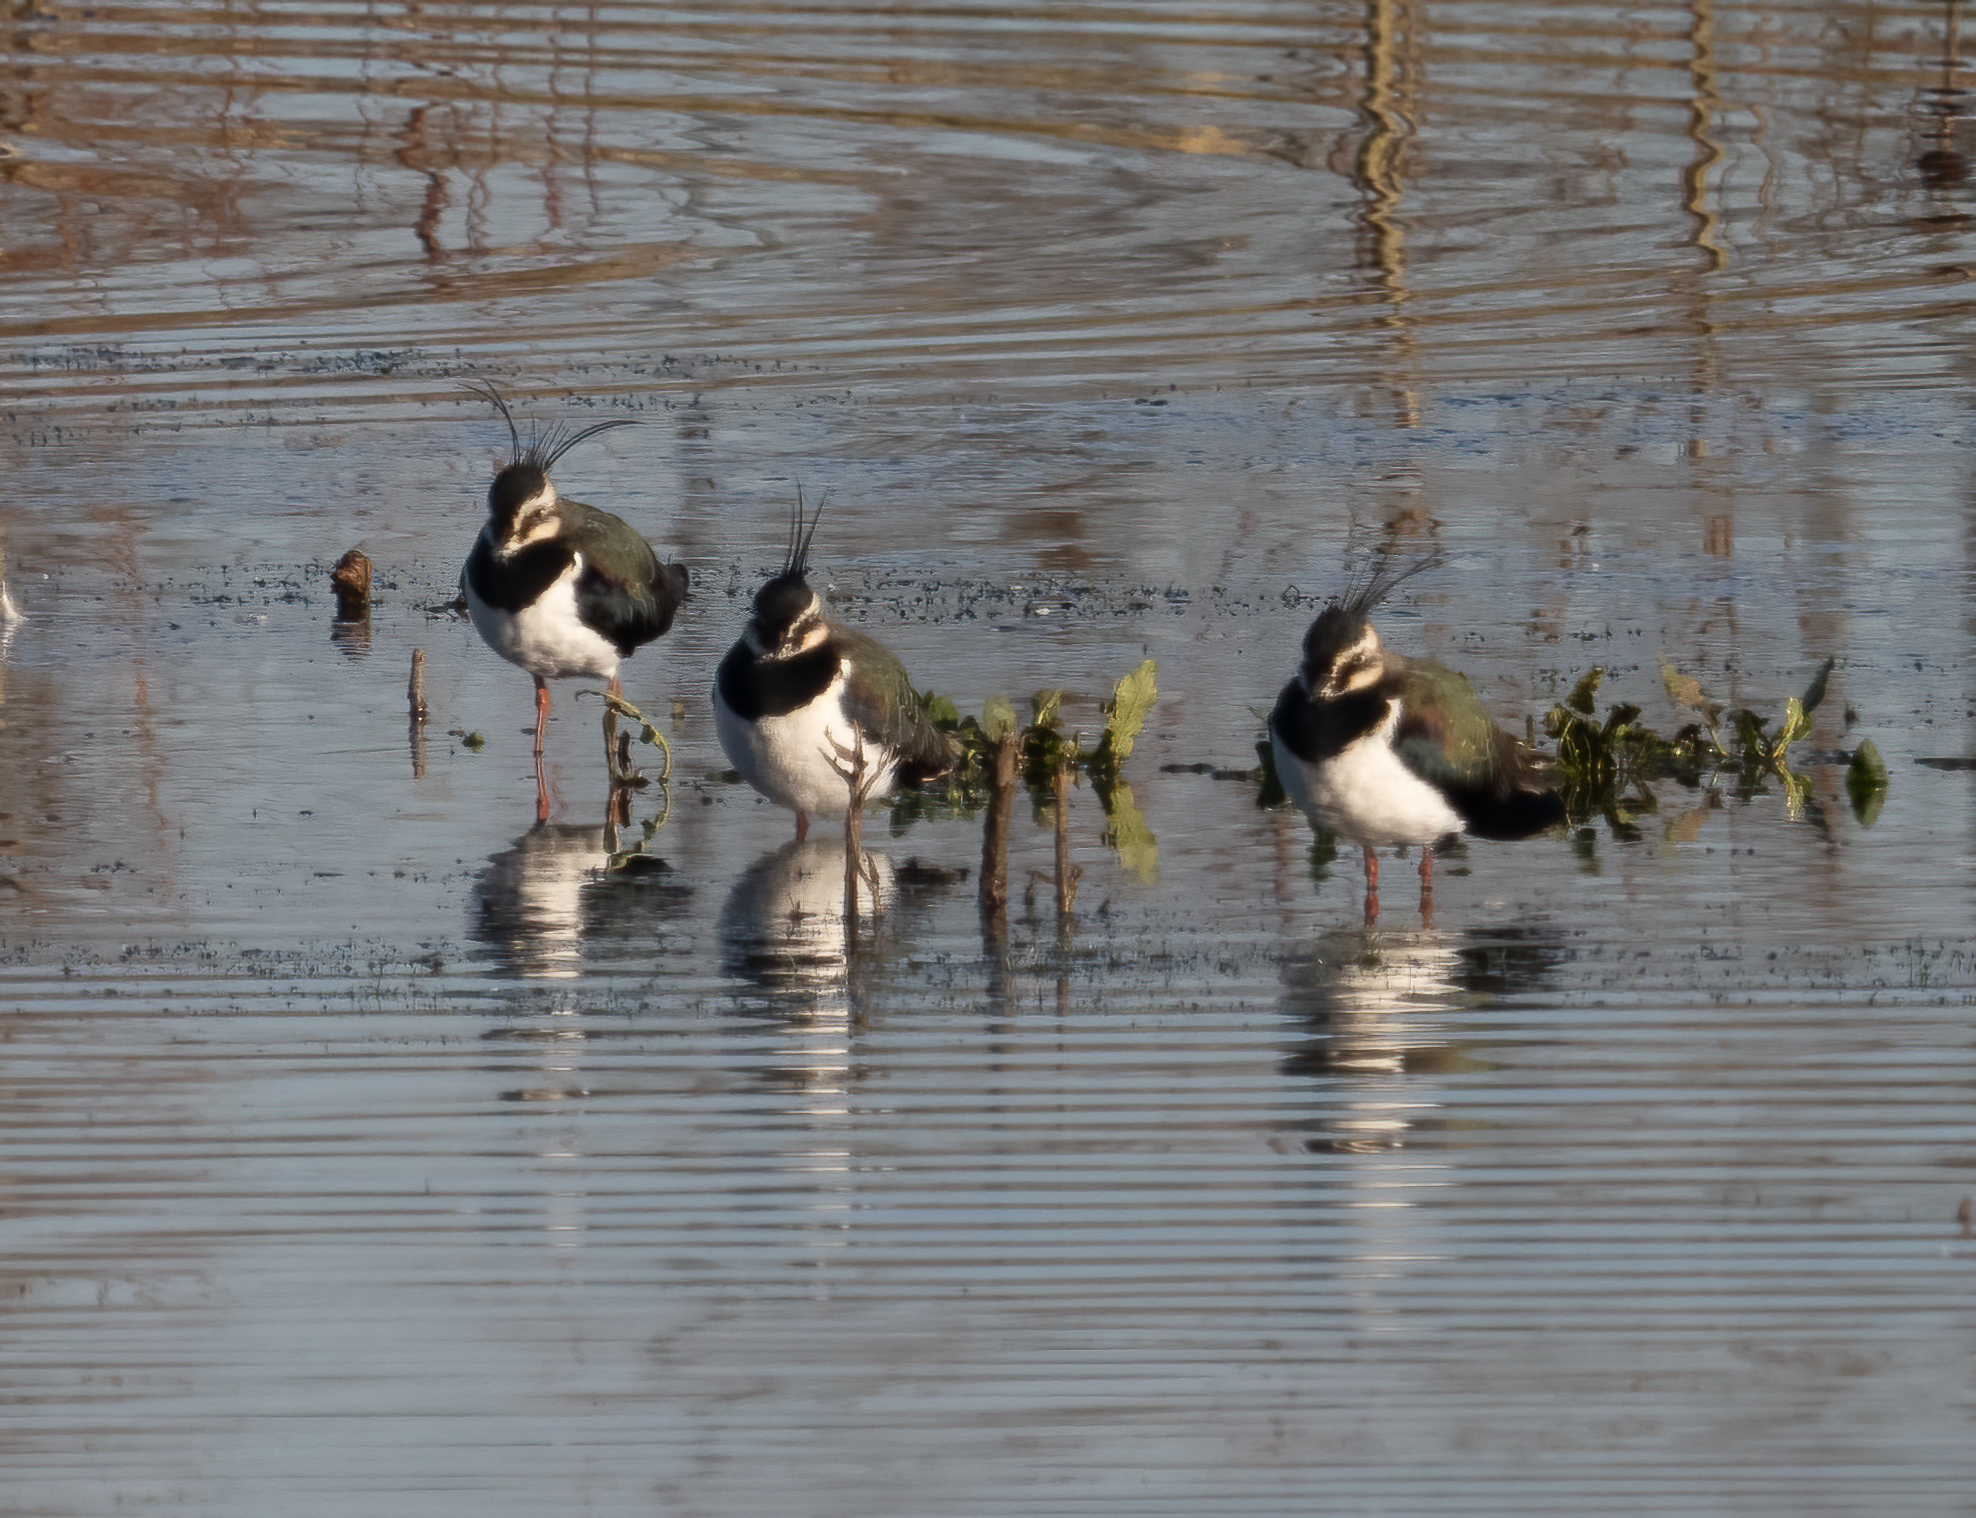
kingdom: Animalia
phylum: Chordata
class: Aves
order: Charadriiformes
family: Charadriidae
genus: Vanellus
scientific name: Vanellus vanellus
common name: Northern lapwing
